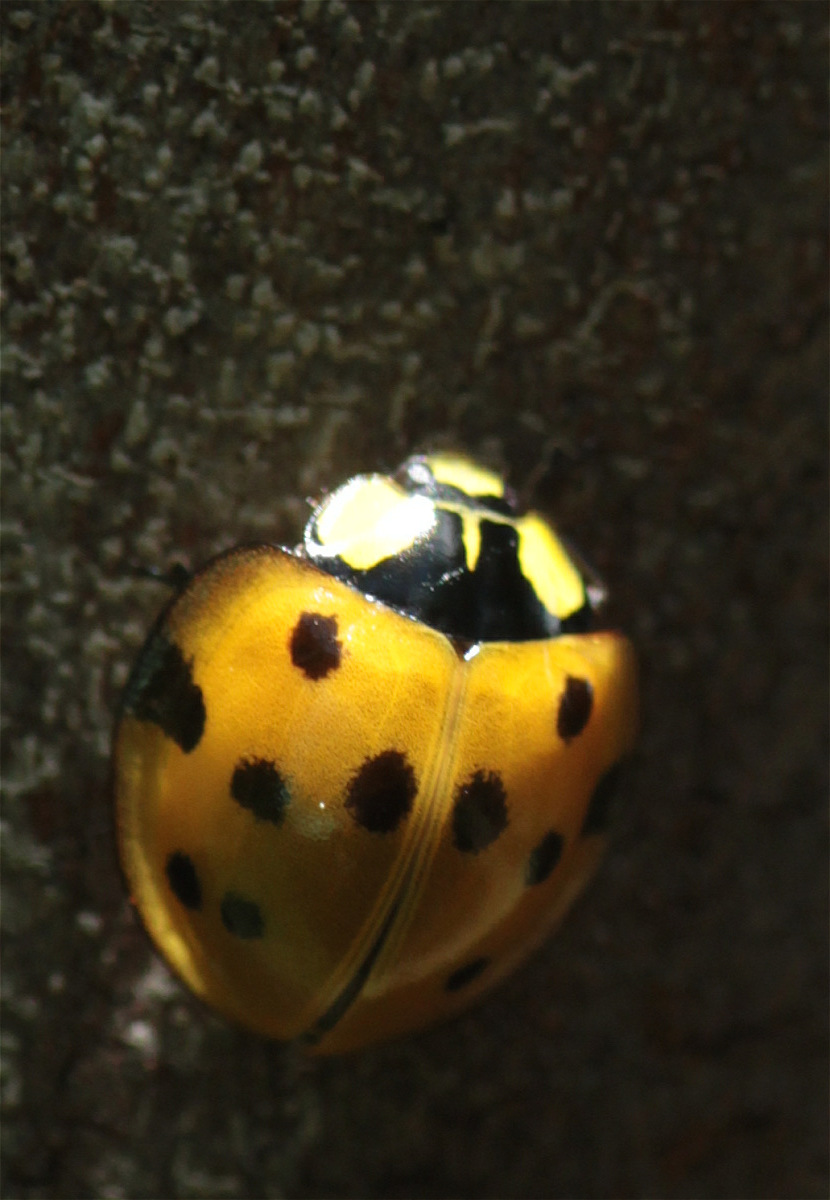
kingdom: Animalia
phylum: Arthropoda
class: Insecta
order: Coleoptera
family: Coccinellidae
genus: Neda
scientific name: Neda aequatoriana
